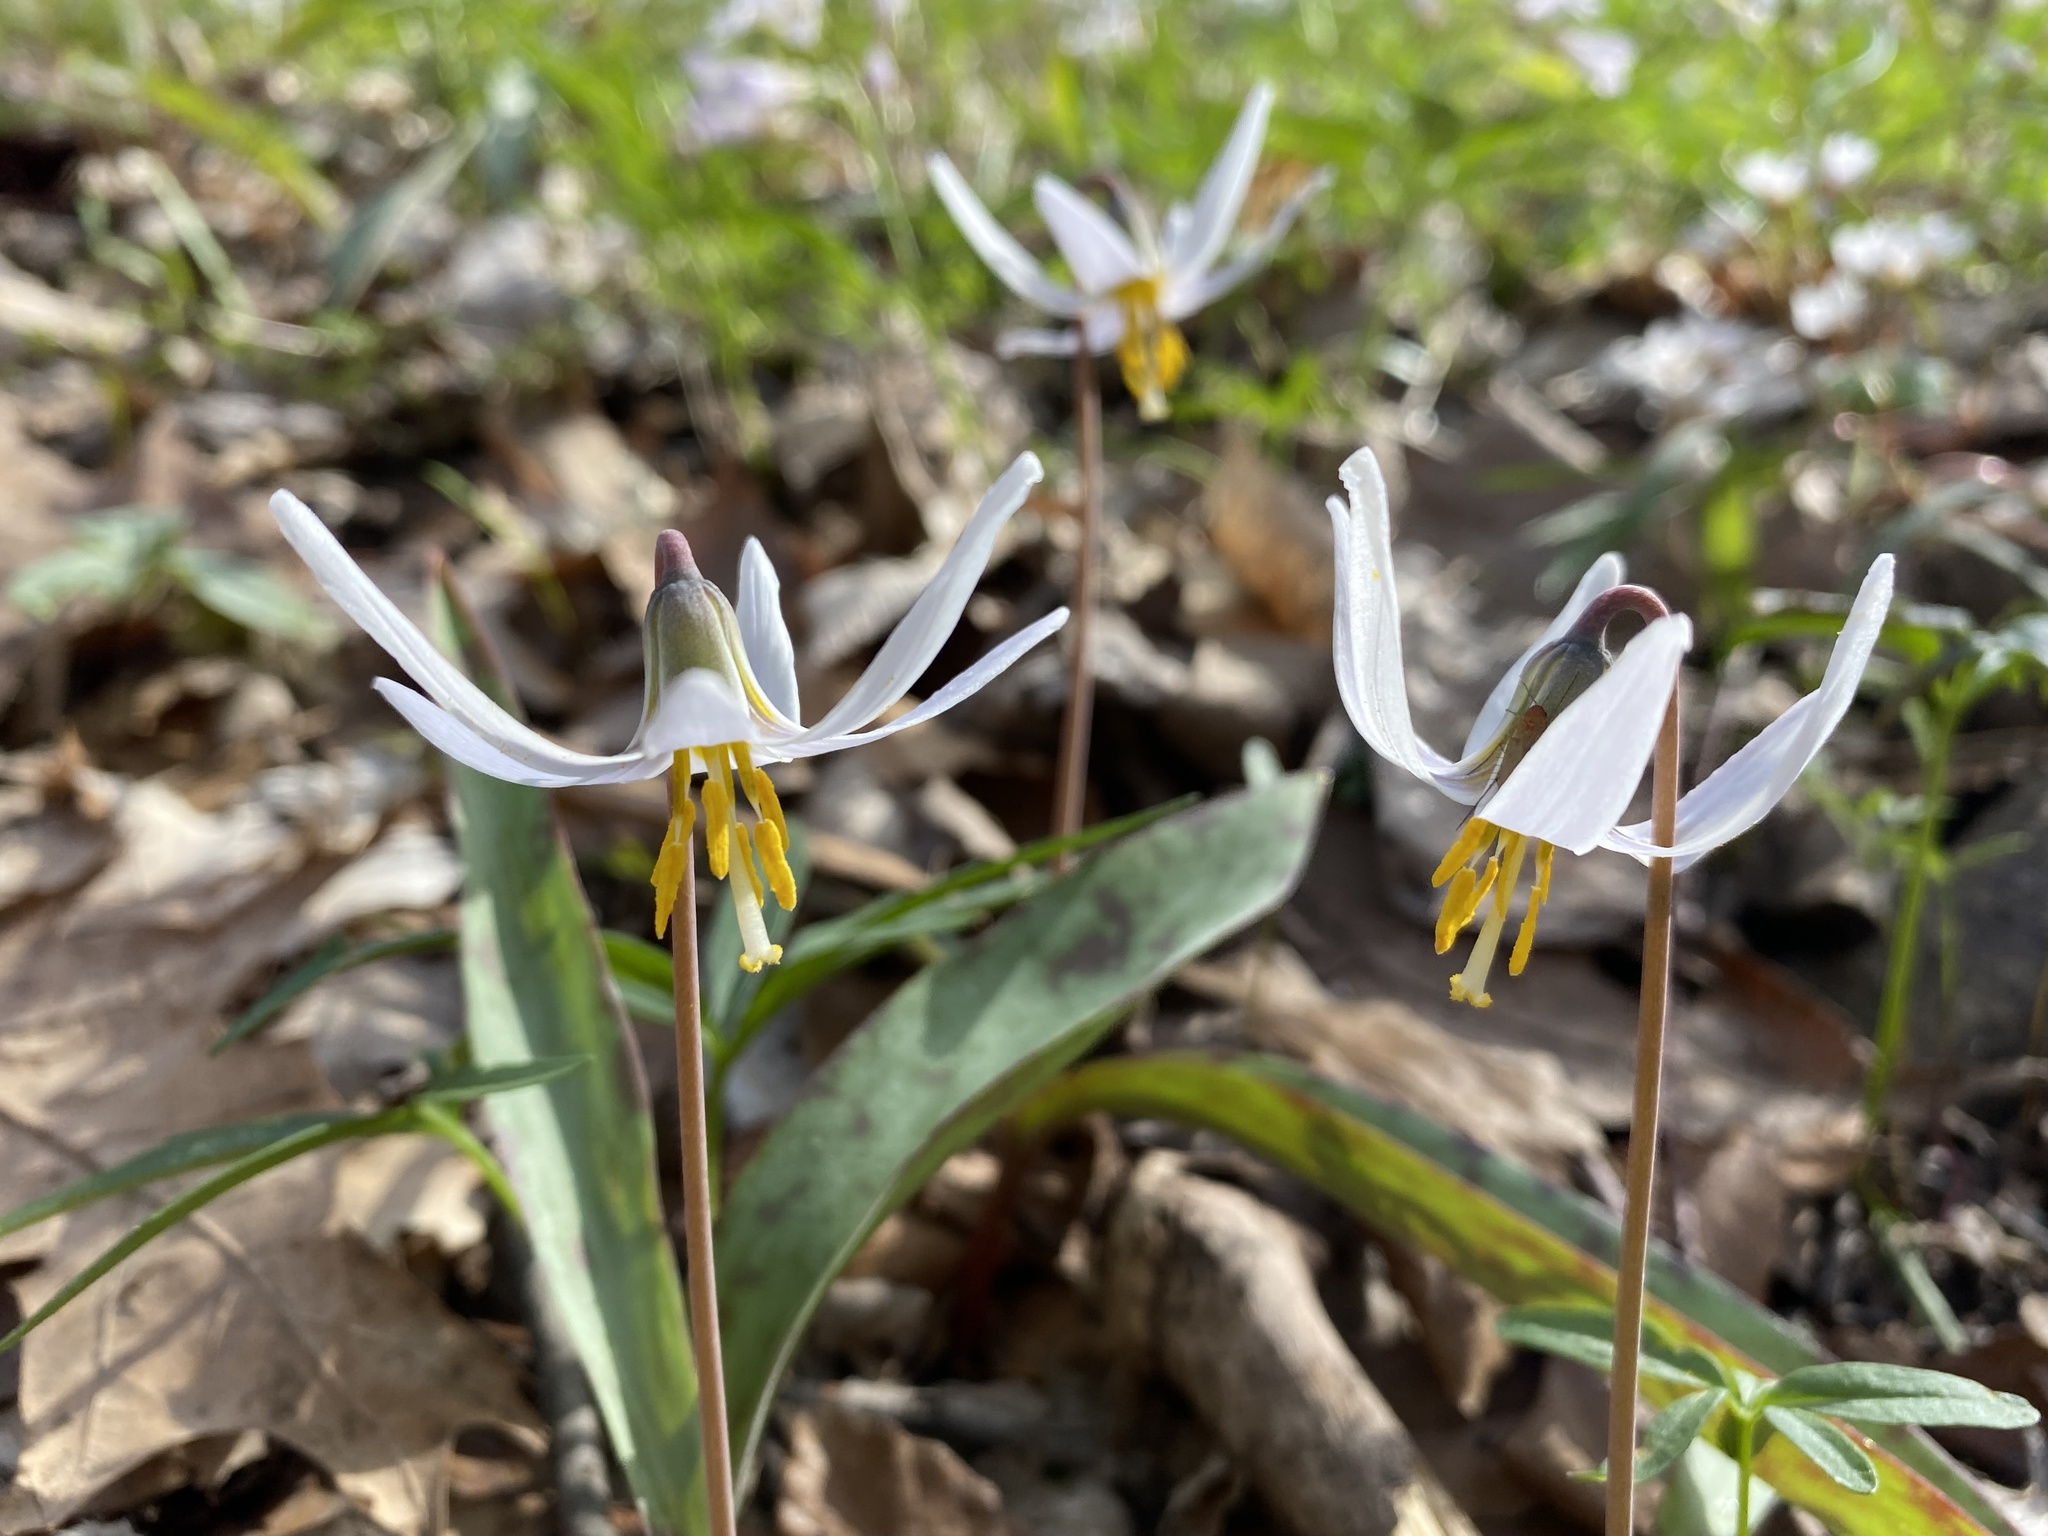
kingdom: Plantae
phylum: Tracheophyta
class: Liliopsida
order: Liliales
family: Liliaceae
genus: Erythronium
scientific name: Erythronium albidum
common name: White trout-lily
